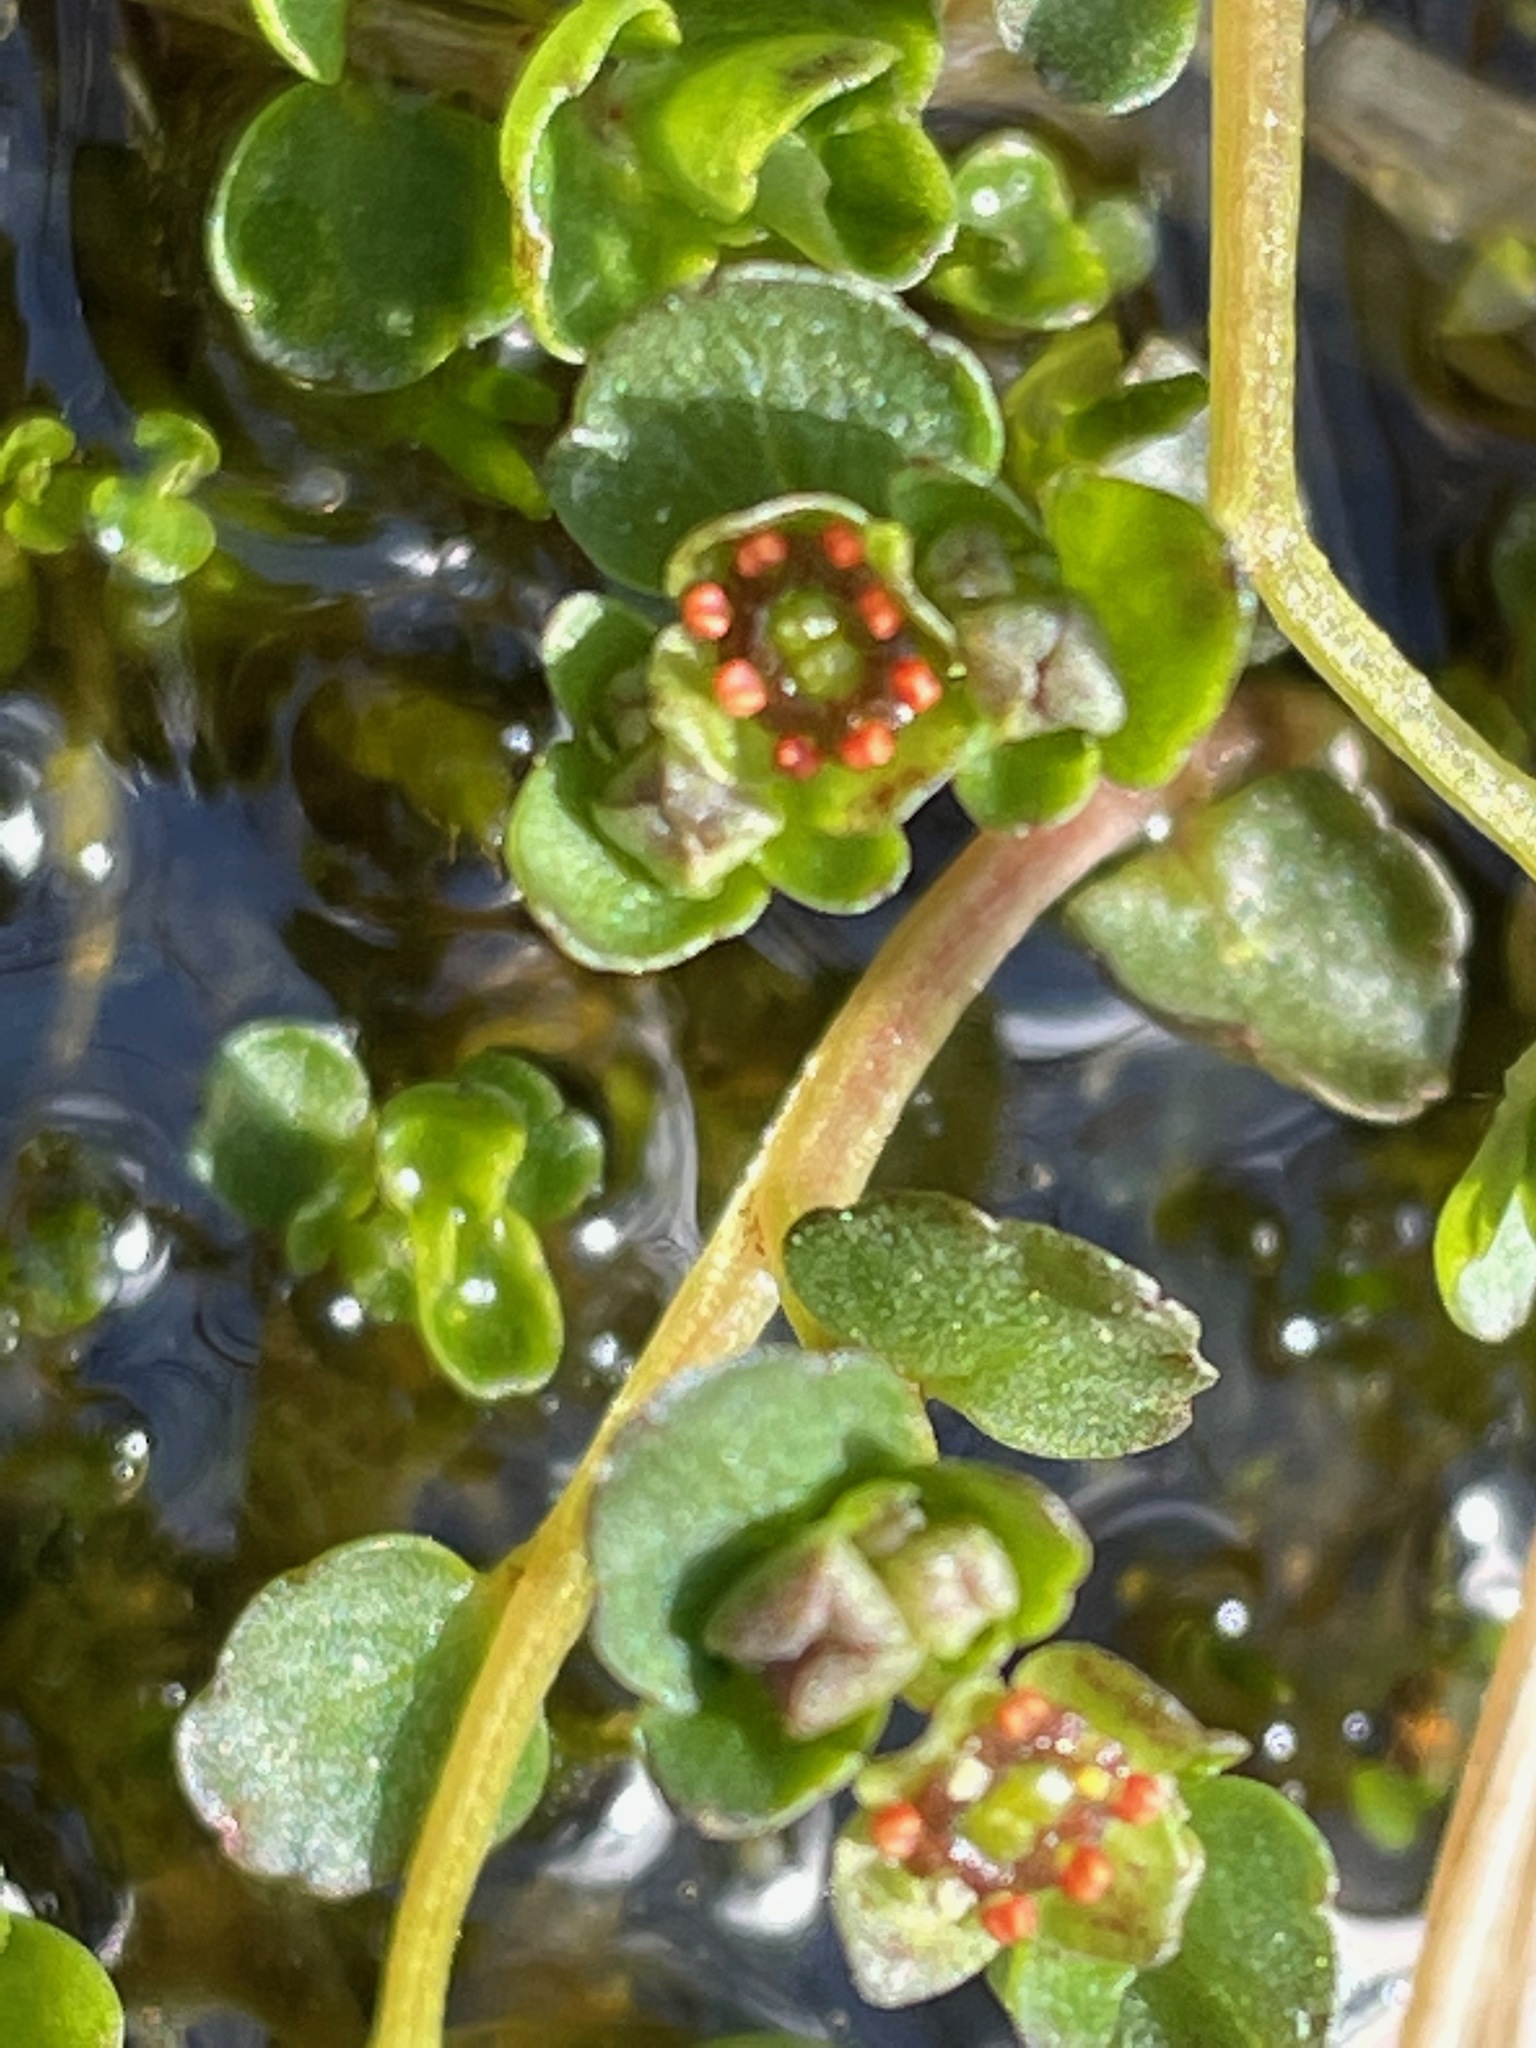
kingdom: Plantae
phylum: Tracheophyta
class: Magnoliopsida
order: Saxifragales
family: Saxifragaceae
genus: Chrysosplenium
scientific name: Chrysosplenium americanum
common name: American golden-saxifrage
